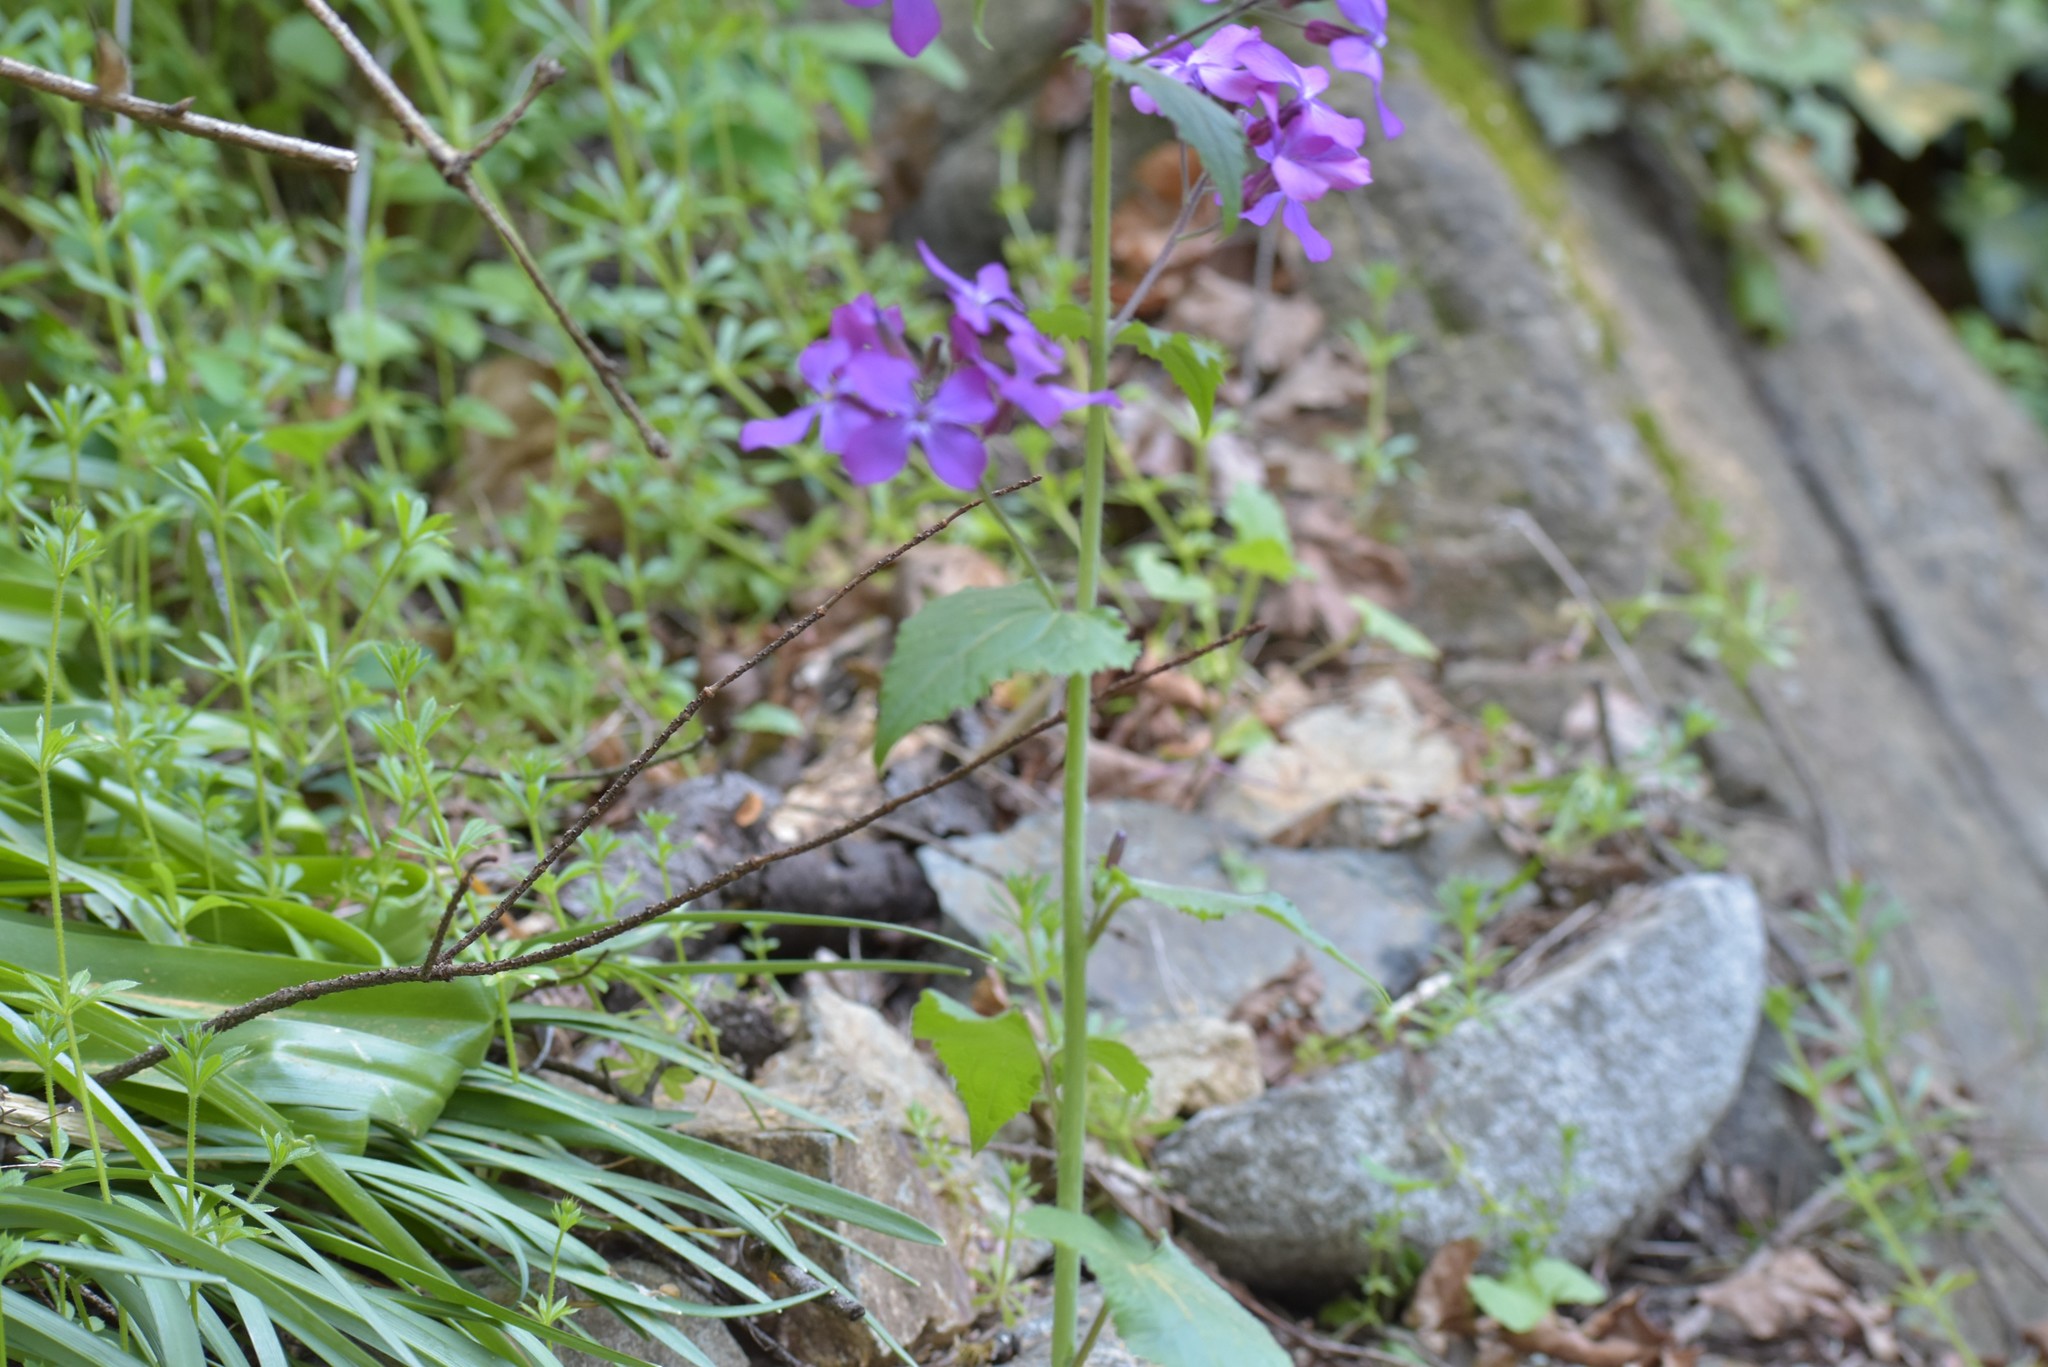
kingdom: Plantae
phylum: Tracheophyta
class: Magnoliopsida
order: Brassicales
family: Brassicaceae
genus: Lunaria
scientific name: Lunaria annua
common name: Honesty
